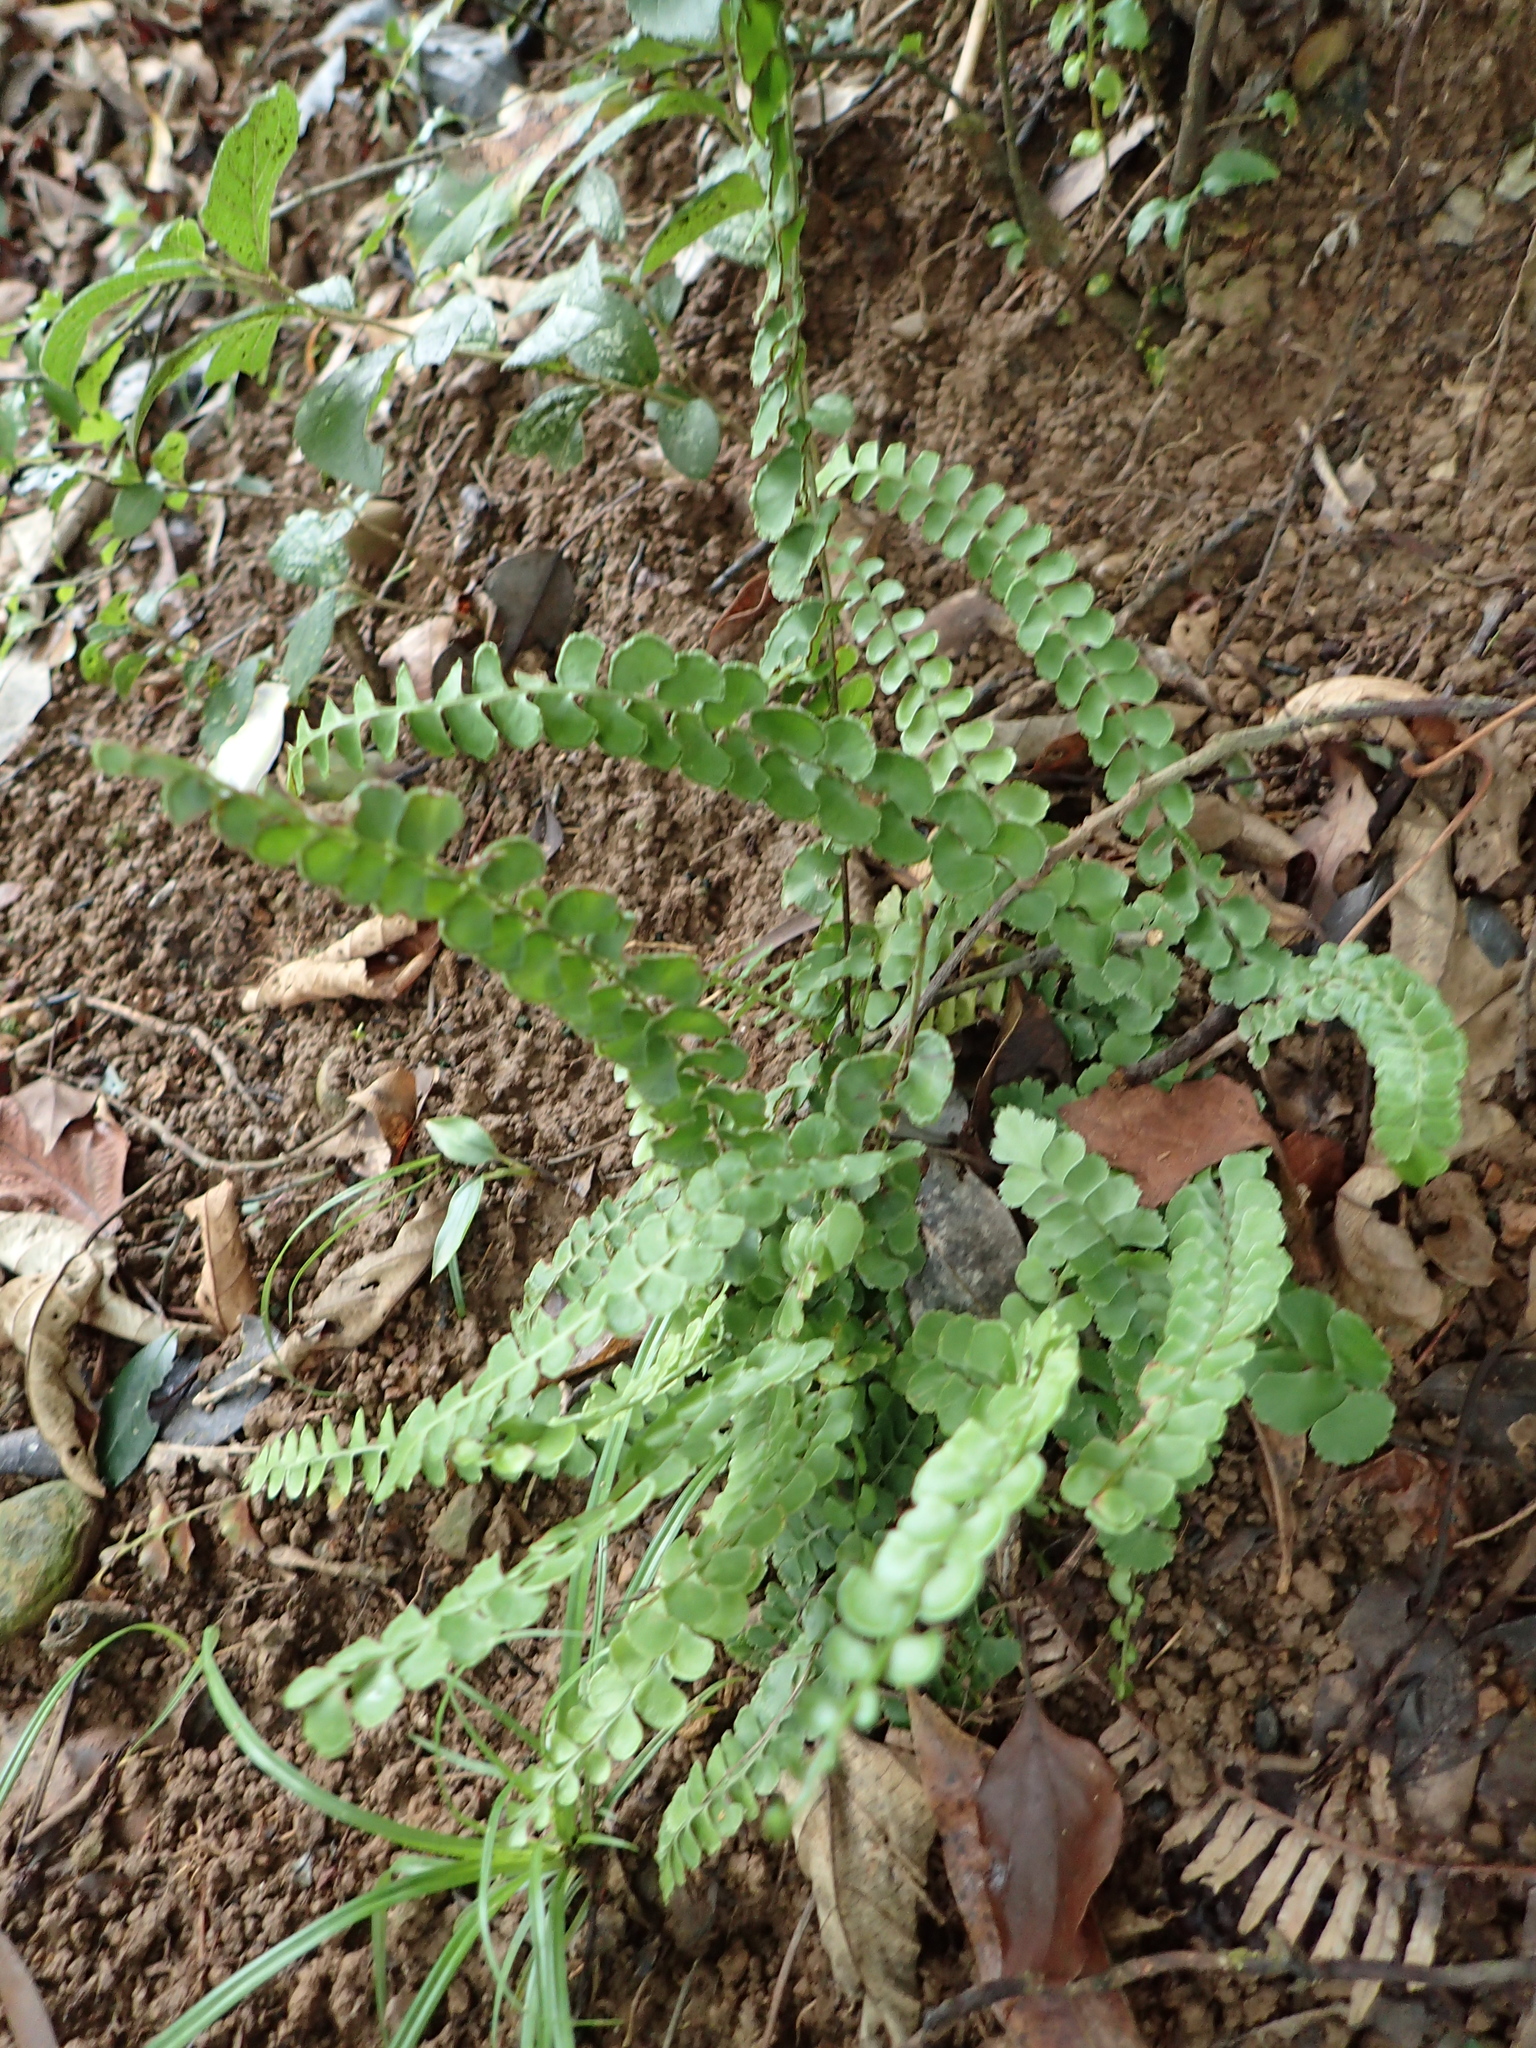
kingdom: Plantae
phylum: Tracheophyta
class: Polypodiopsida
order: Polypodiales
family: Lindsaeaceae
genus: Lindsaea
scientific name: Lindsaea orbiculata
